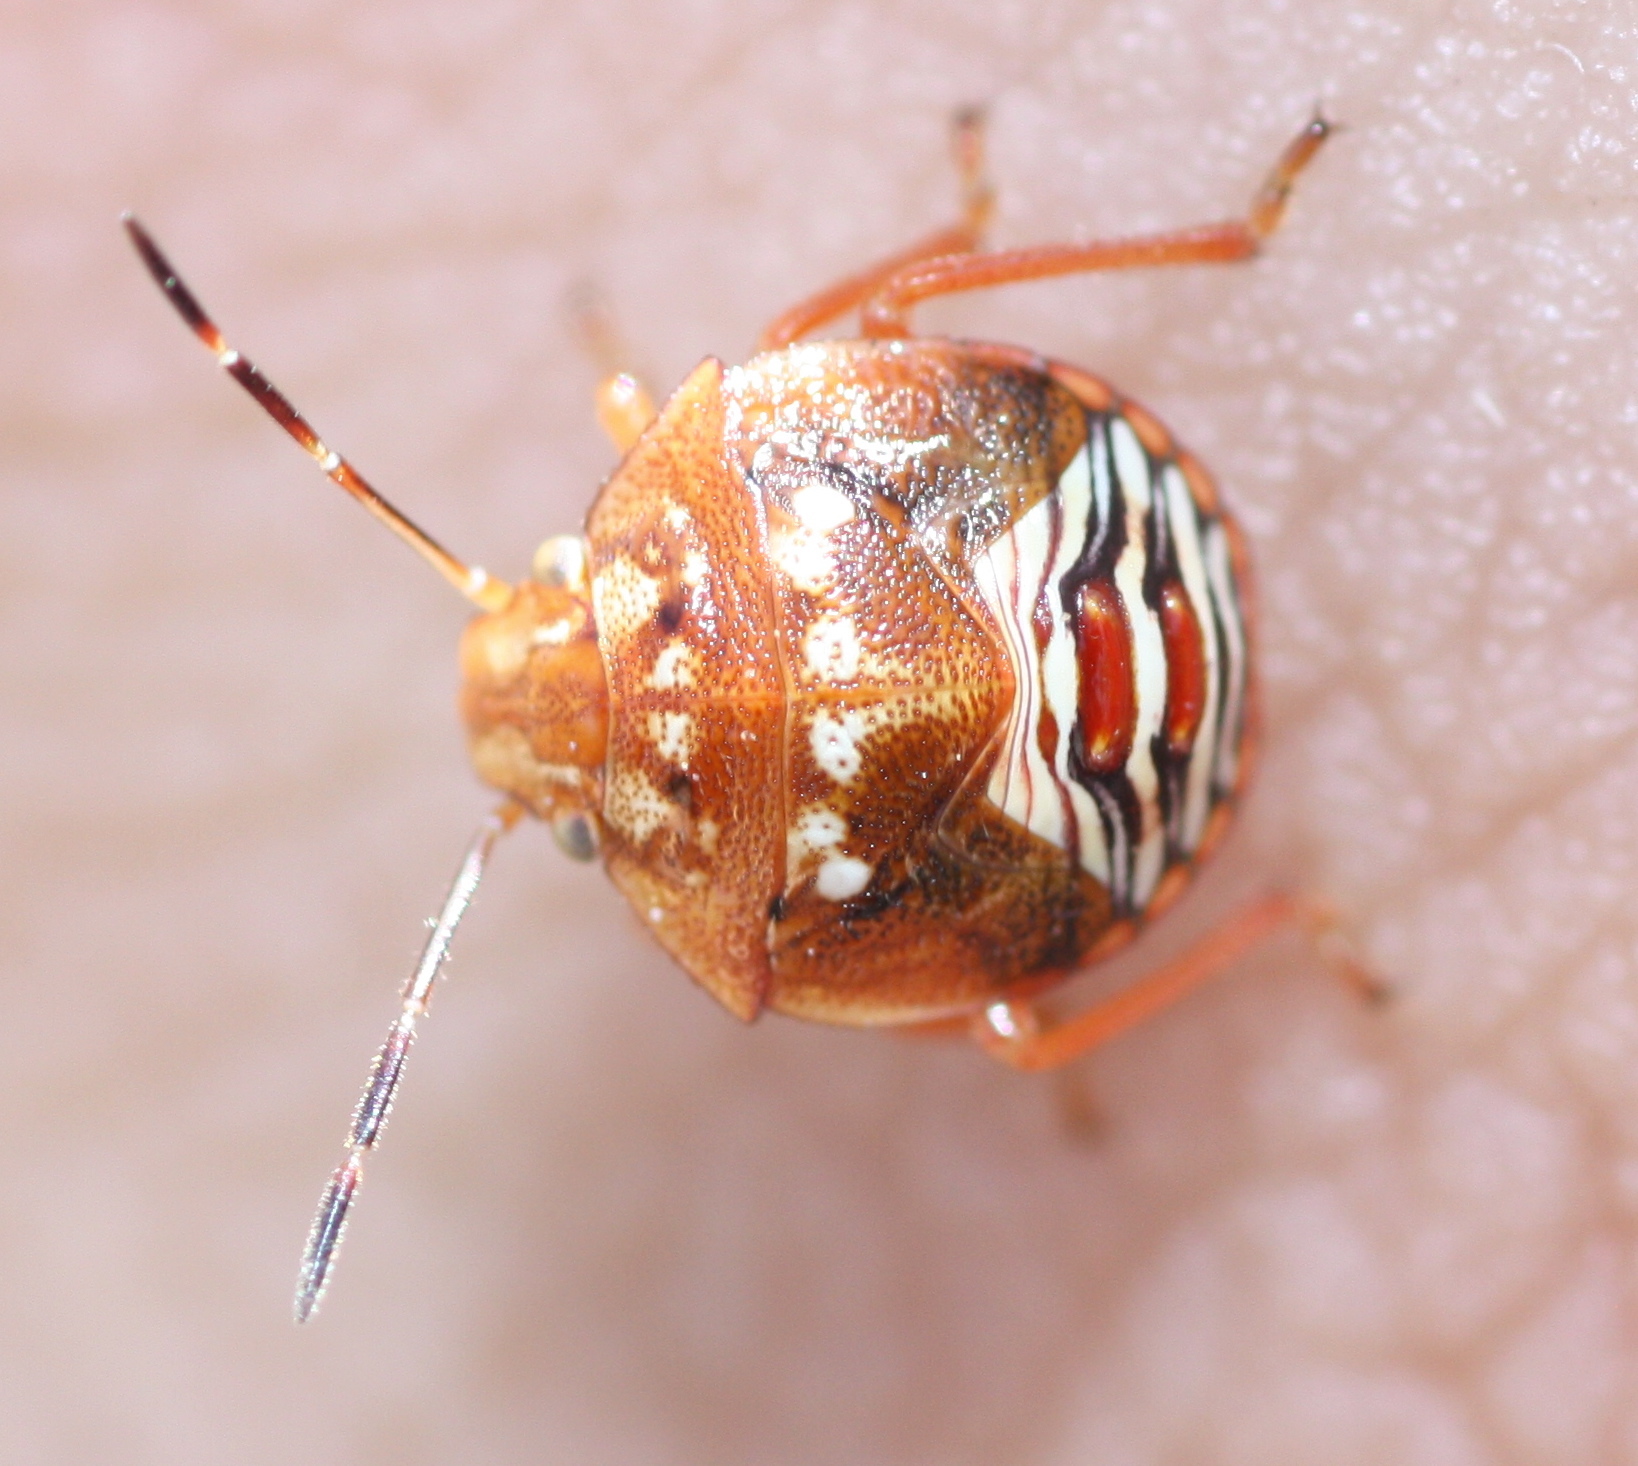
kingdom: Animalia
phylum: Arthropoda
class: Insecta
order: Hemiptera
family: Pentatomidae
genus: Thyanta
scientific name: Thyanta accerra
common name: Stink bug
